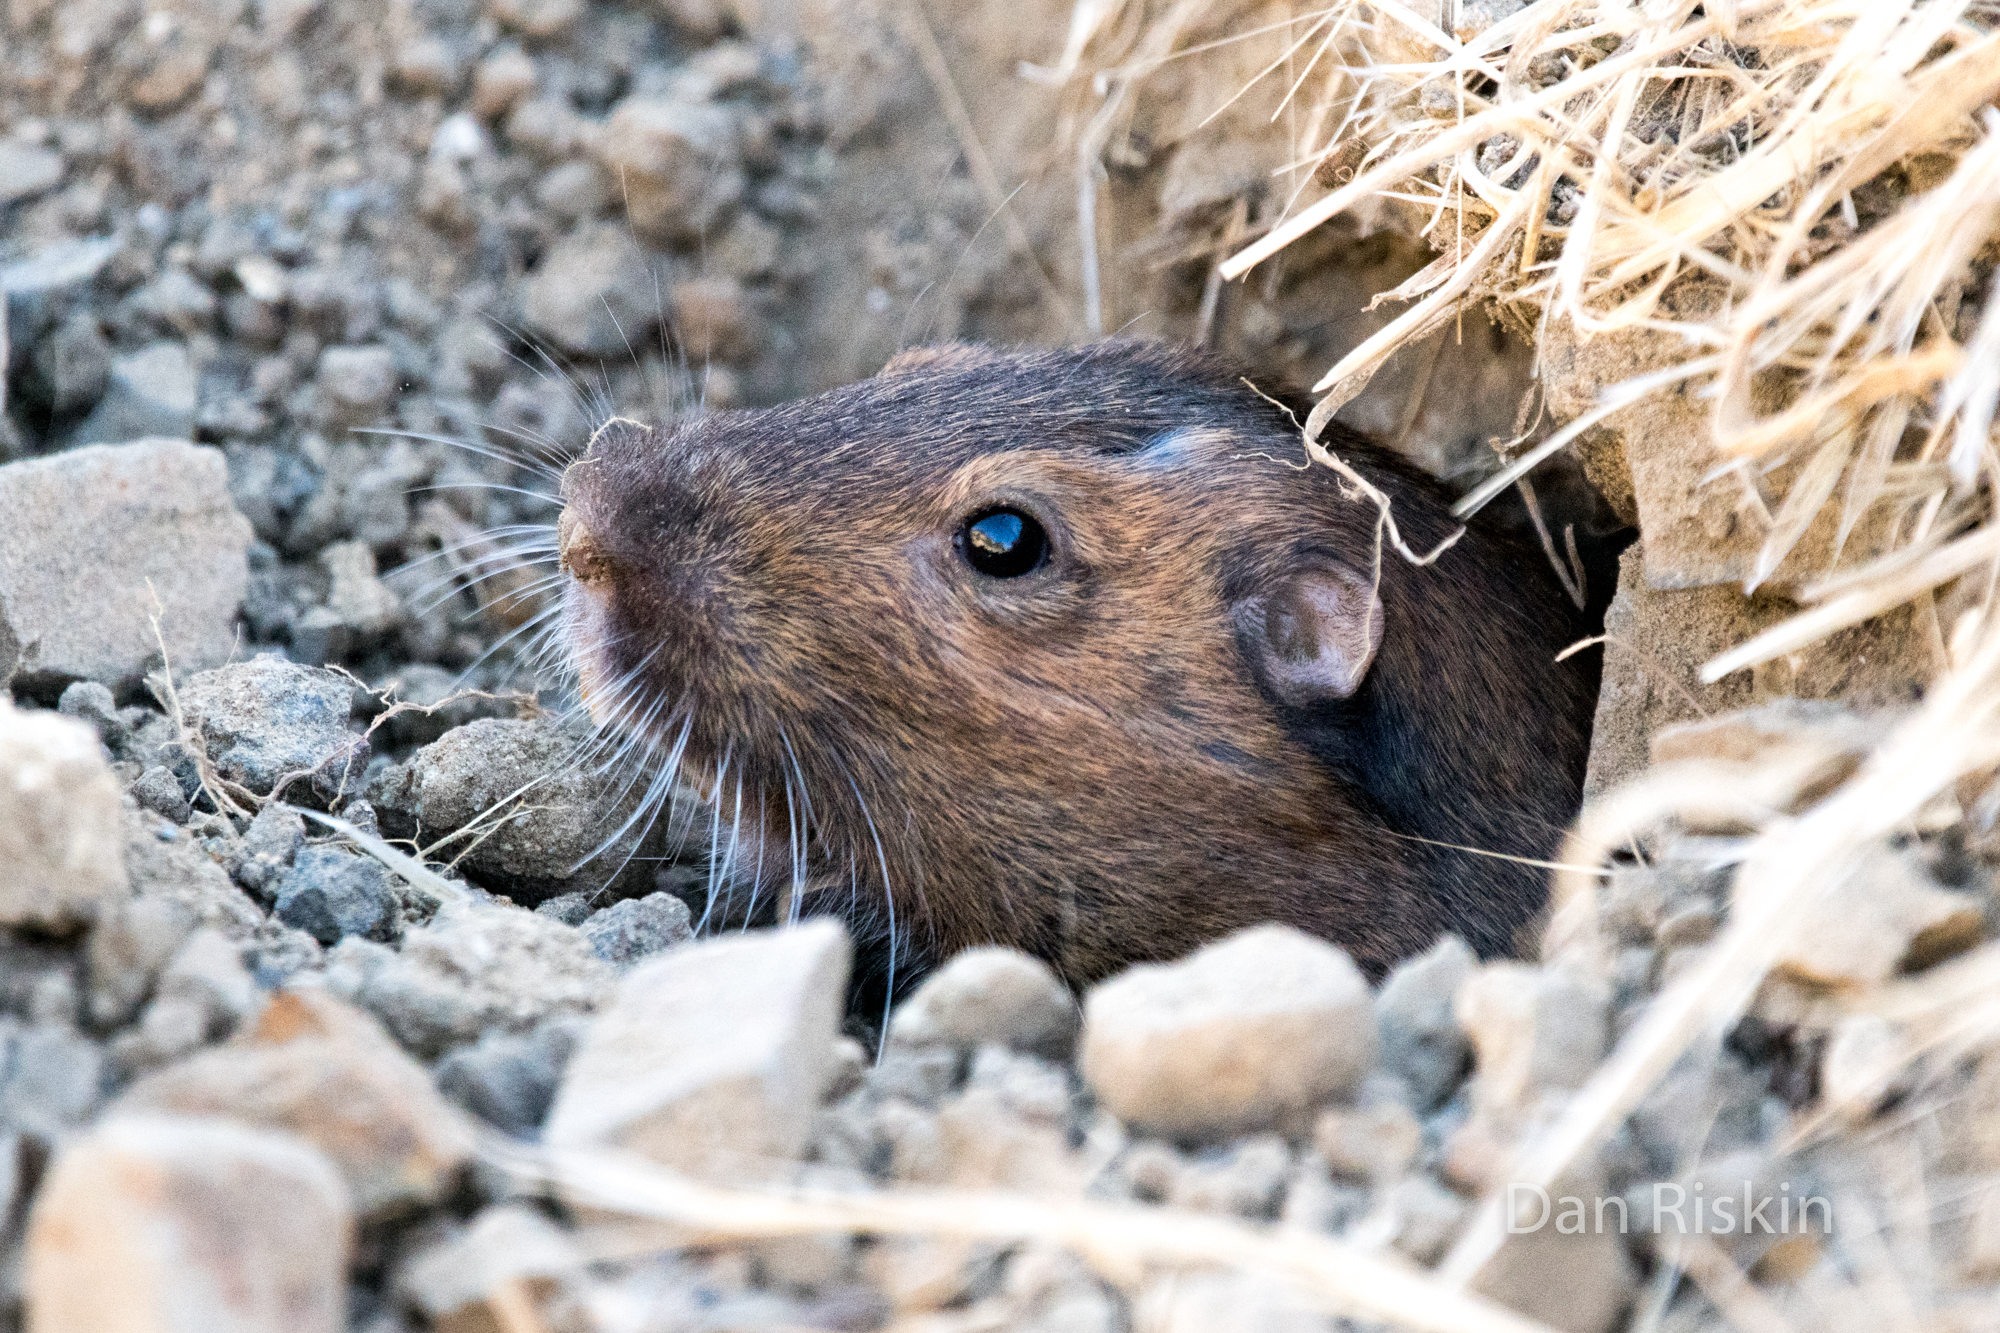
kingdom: Animalia
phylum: Chordata
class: Mammalia
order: Rodentia
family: Geomyidae
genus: Thomomys
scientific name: Thomomys bottae
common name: Botta's pocket gopher
